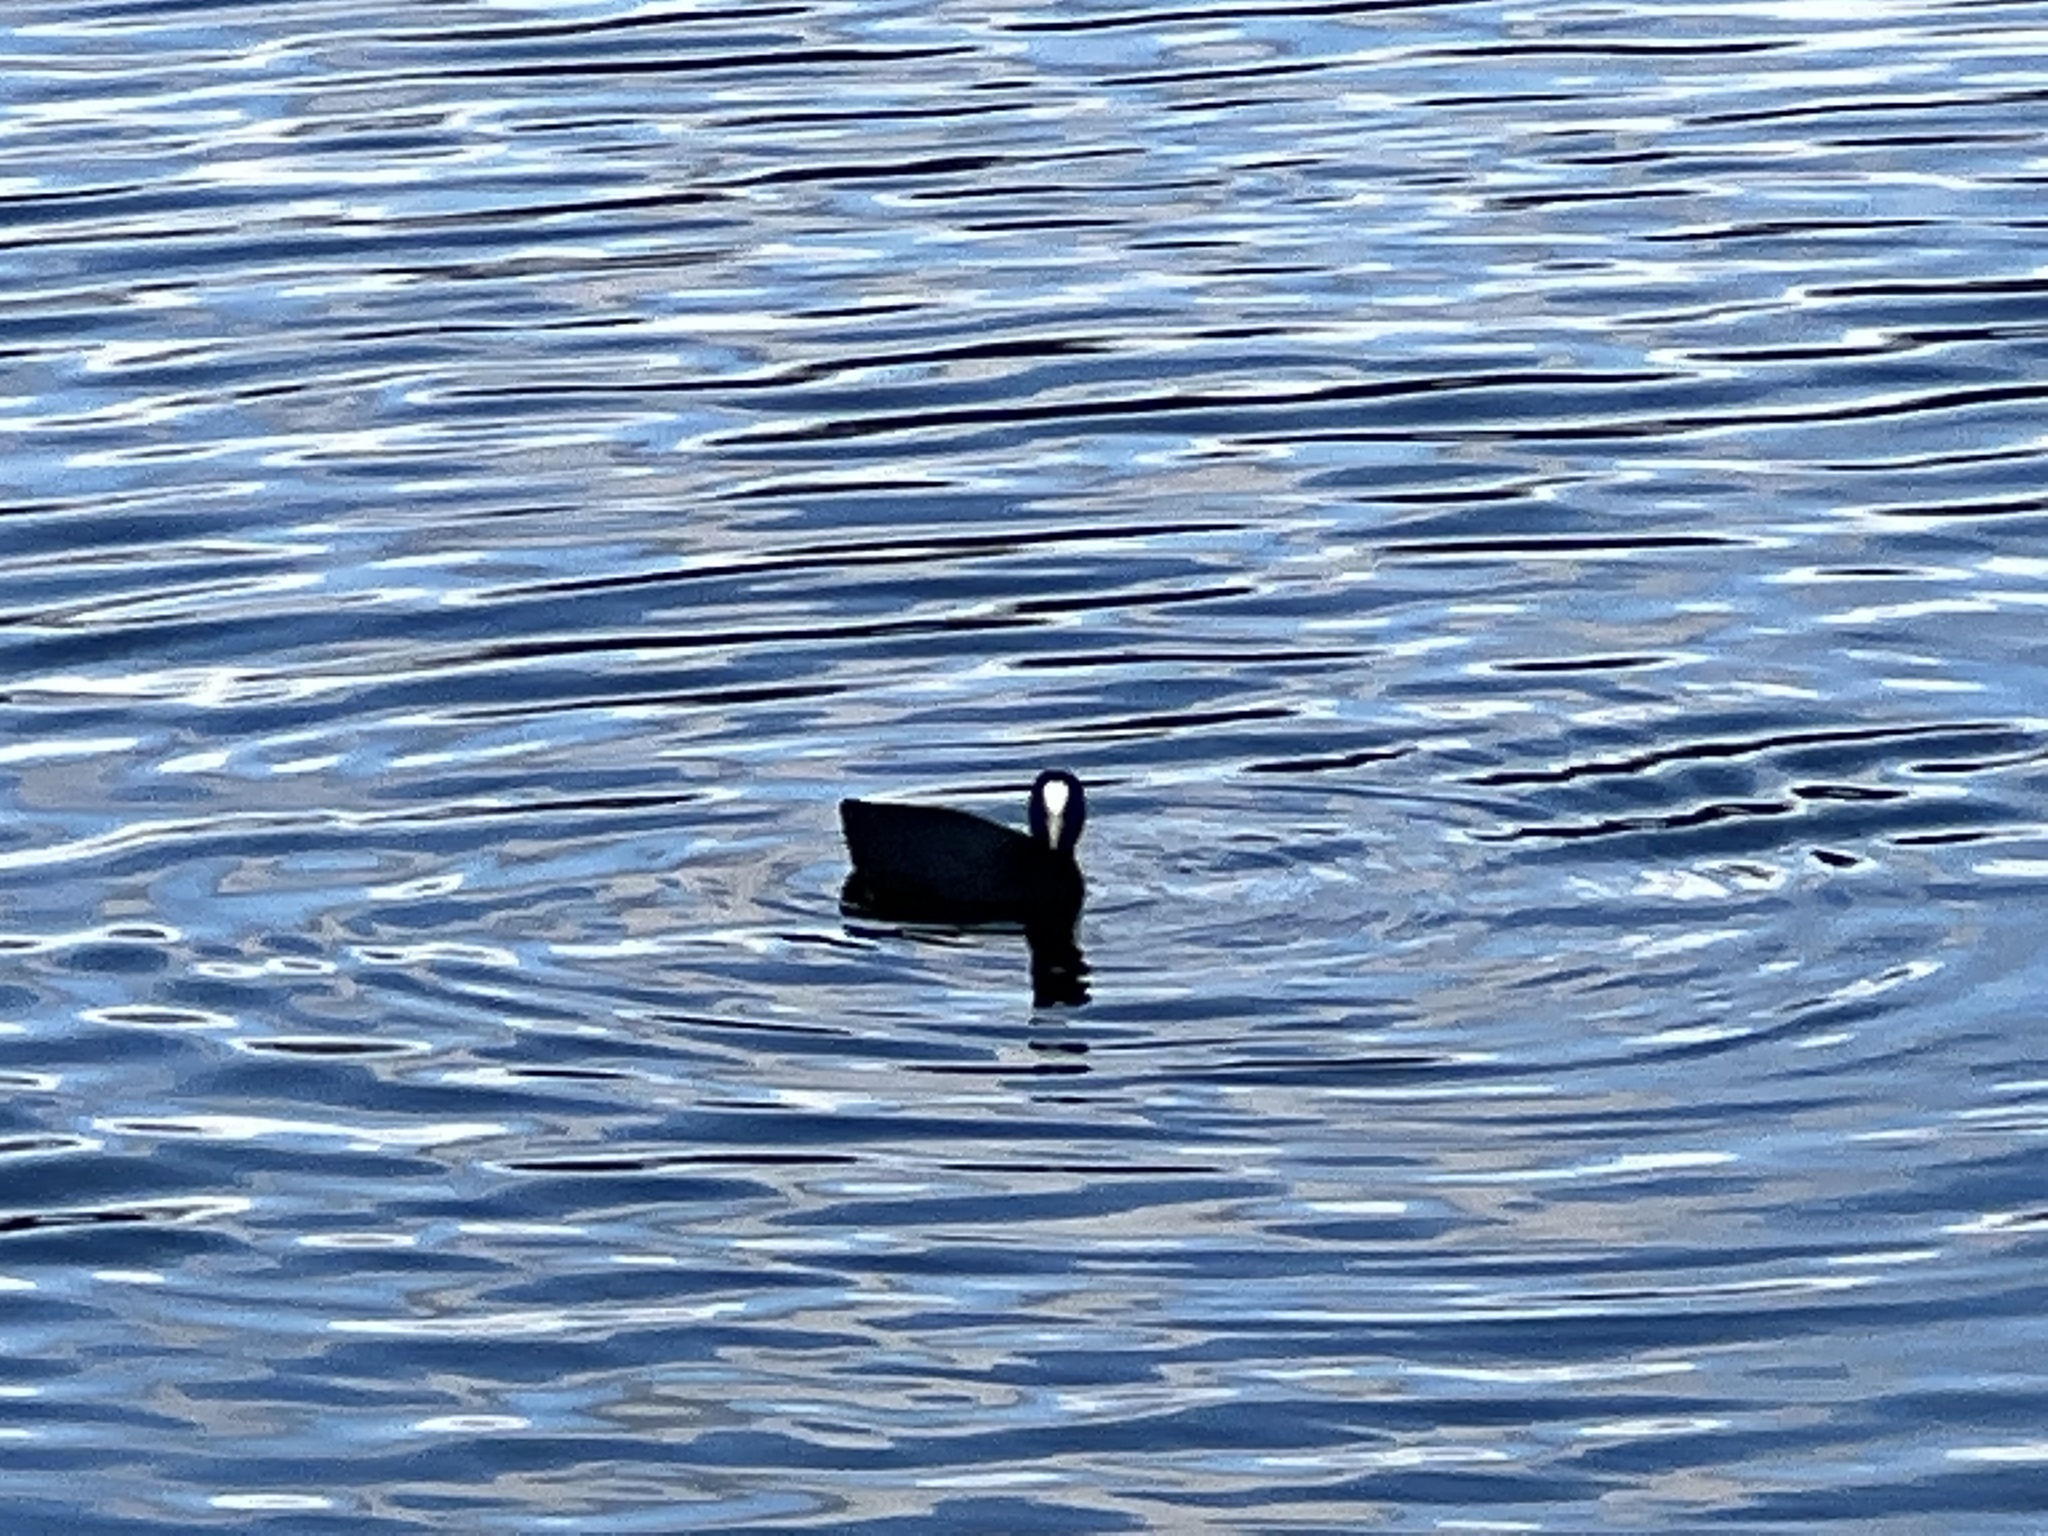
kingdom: Animalia
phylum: Chordata
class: Aves
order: Gruiformes
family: Rallidae
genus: Fulica
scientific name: Fulica atra
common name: Eurasian coot
